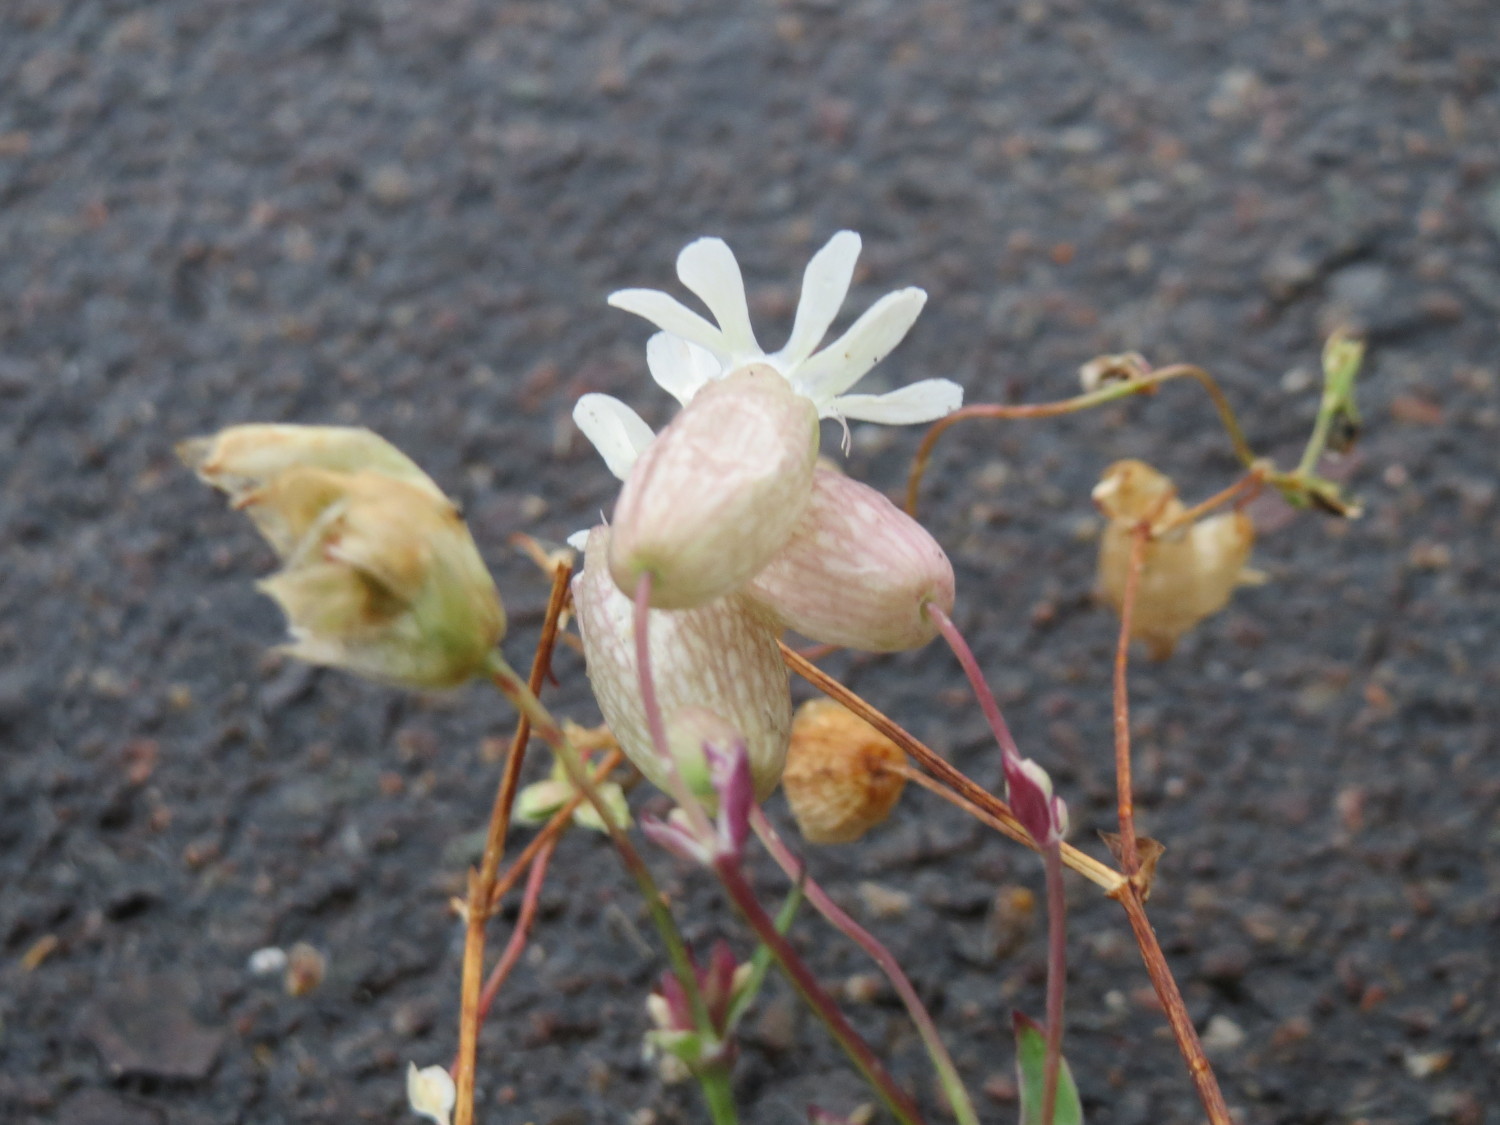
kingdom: Plantae
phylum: Tracheophyta
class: Magnoliopsida
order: Caryophyllales
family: Caryophyllaceae
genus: Silene
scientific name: Silene vulgaris
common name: Bladder campion
